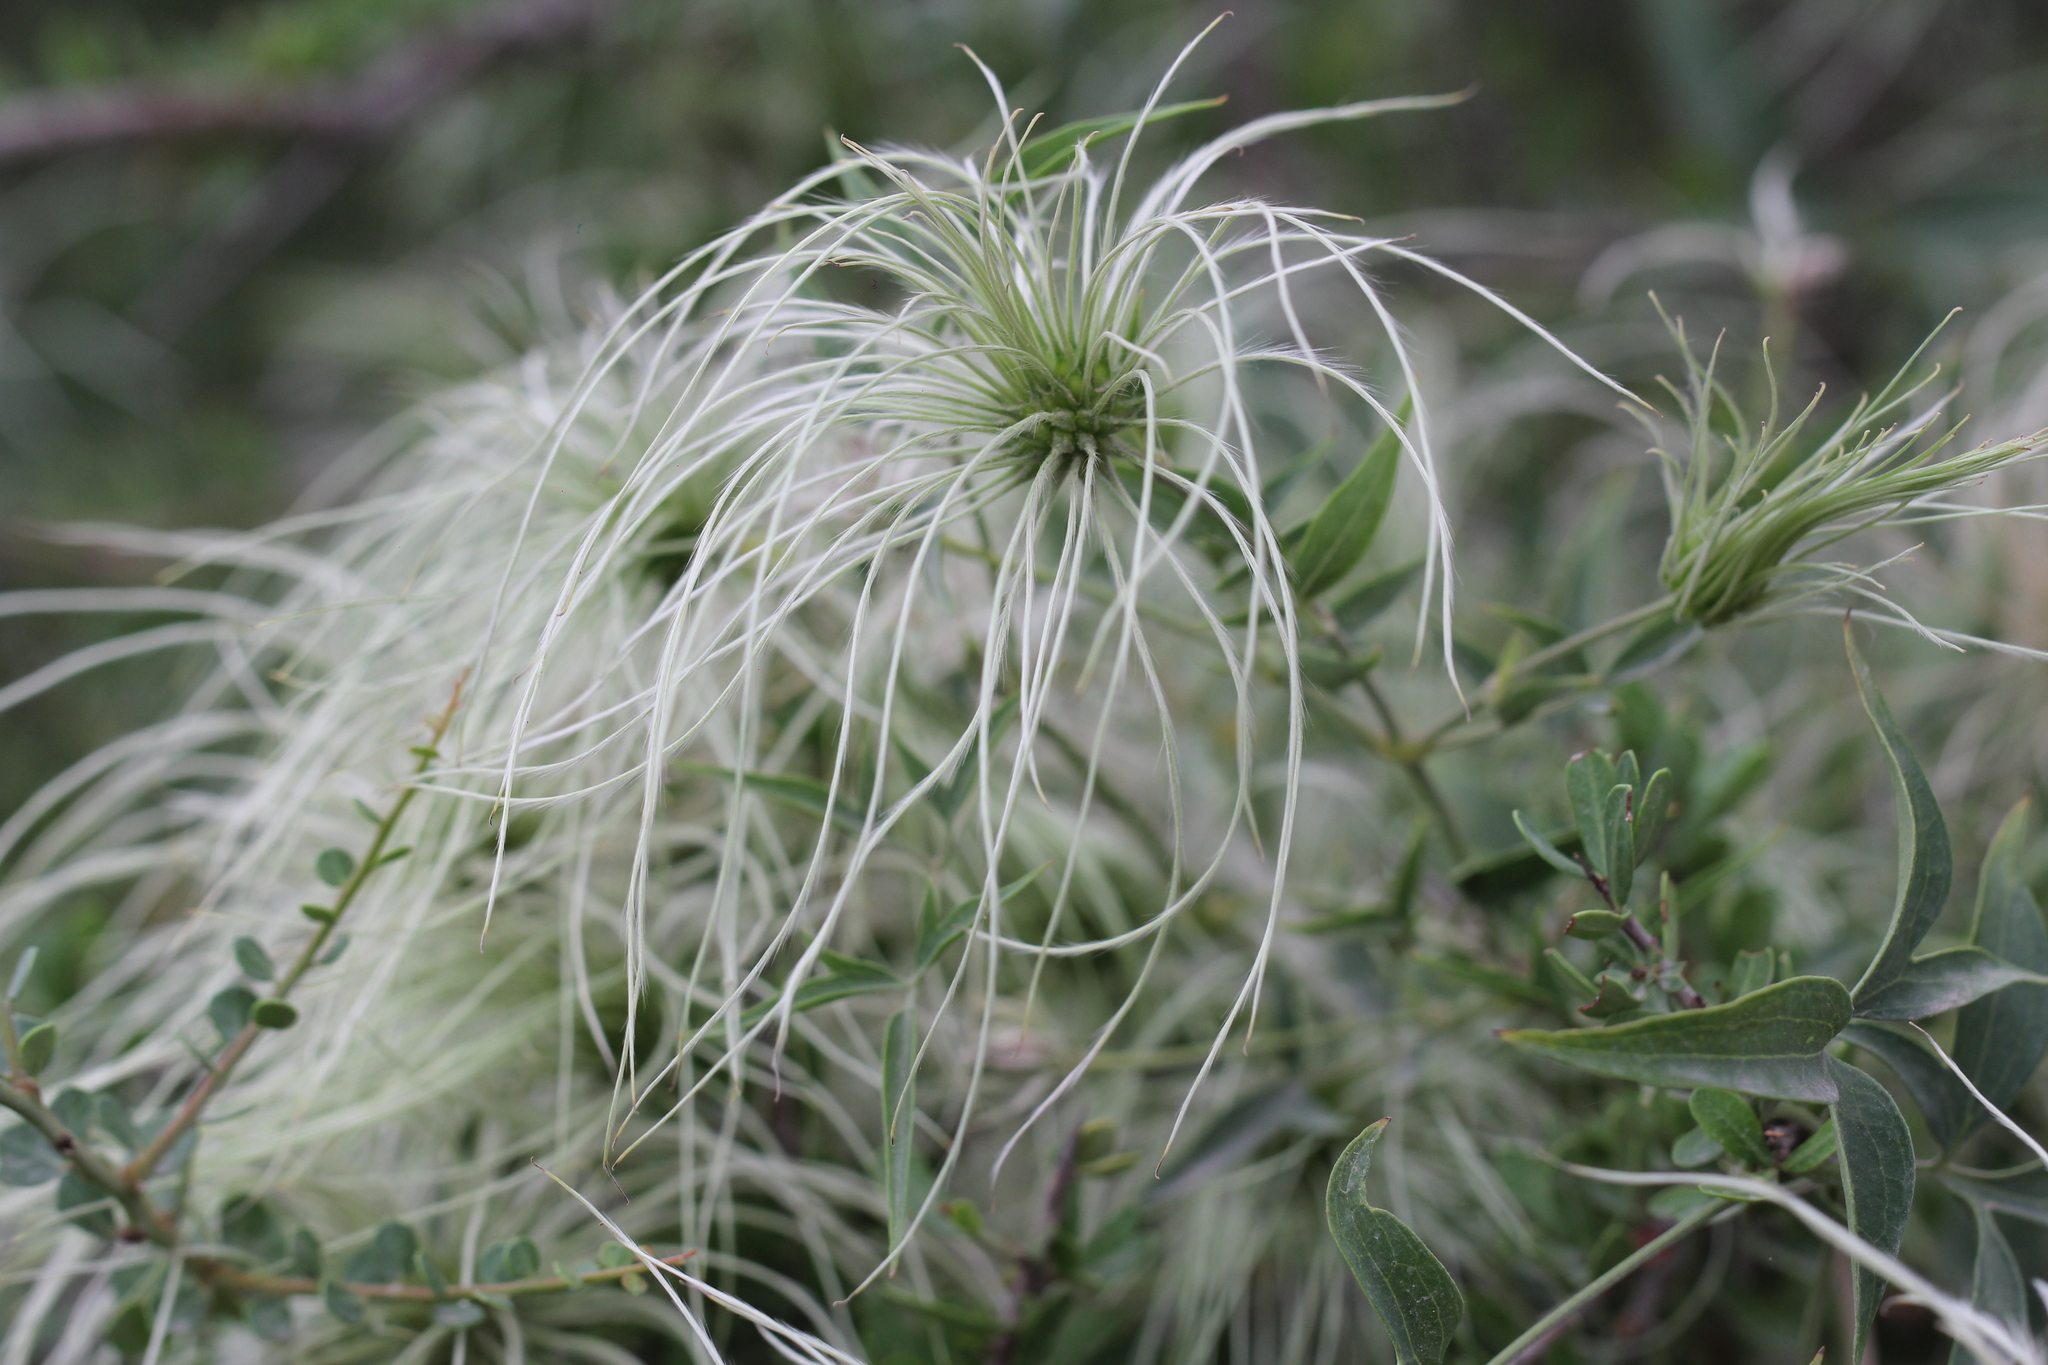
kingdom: Plantae
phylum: Tracheophyta
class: Magnoliopsida
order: Ranunculales
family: Ranunculaceae
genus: Clematis
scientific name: Clematis montevidensis
